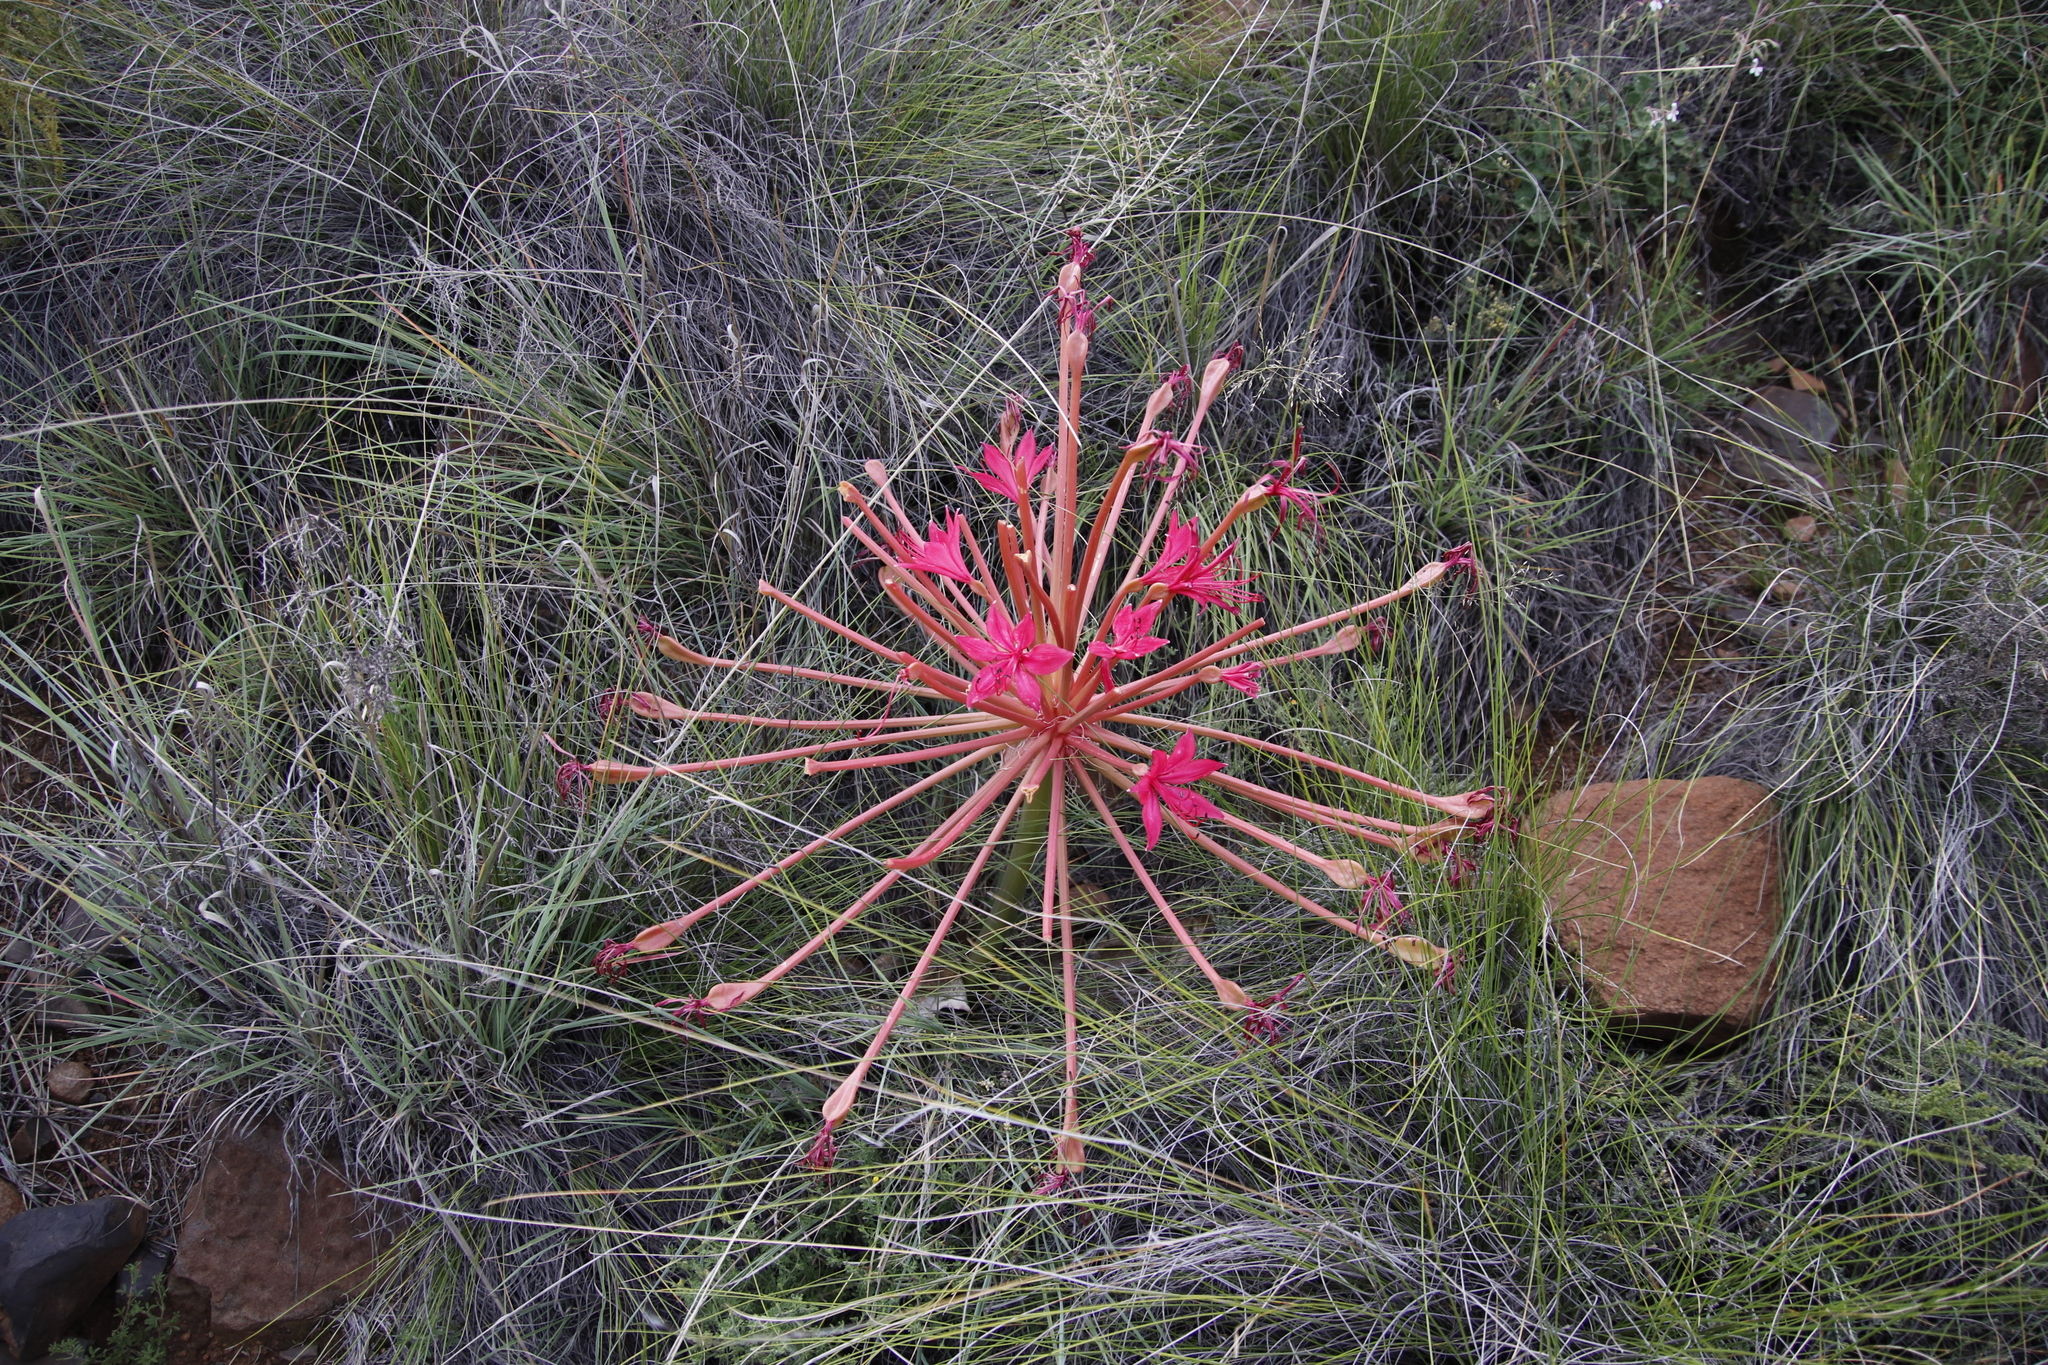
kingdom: Plantae
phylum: Tracheophyta
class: Liliopsida
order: Asparagales
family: Amaryllidaceae
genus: Brunsvigia
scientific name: Brunsvigia radulosa
